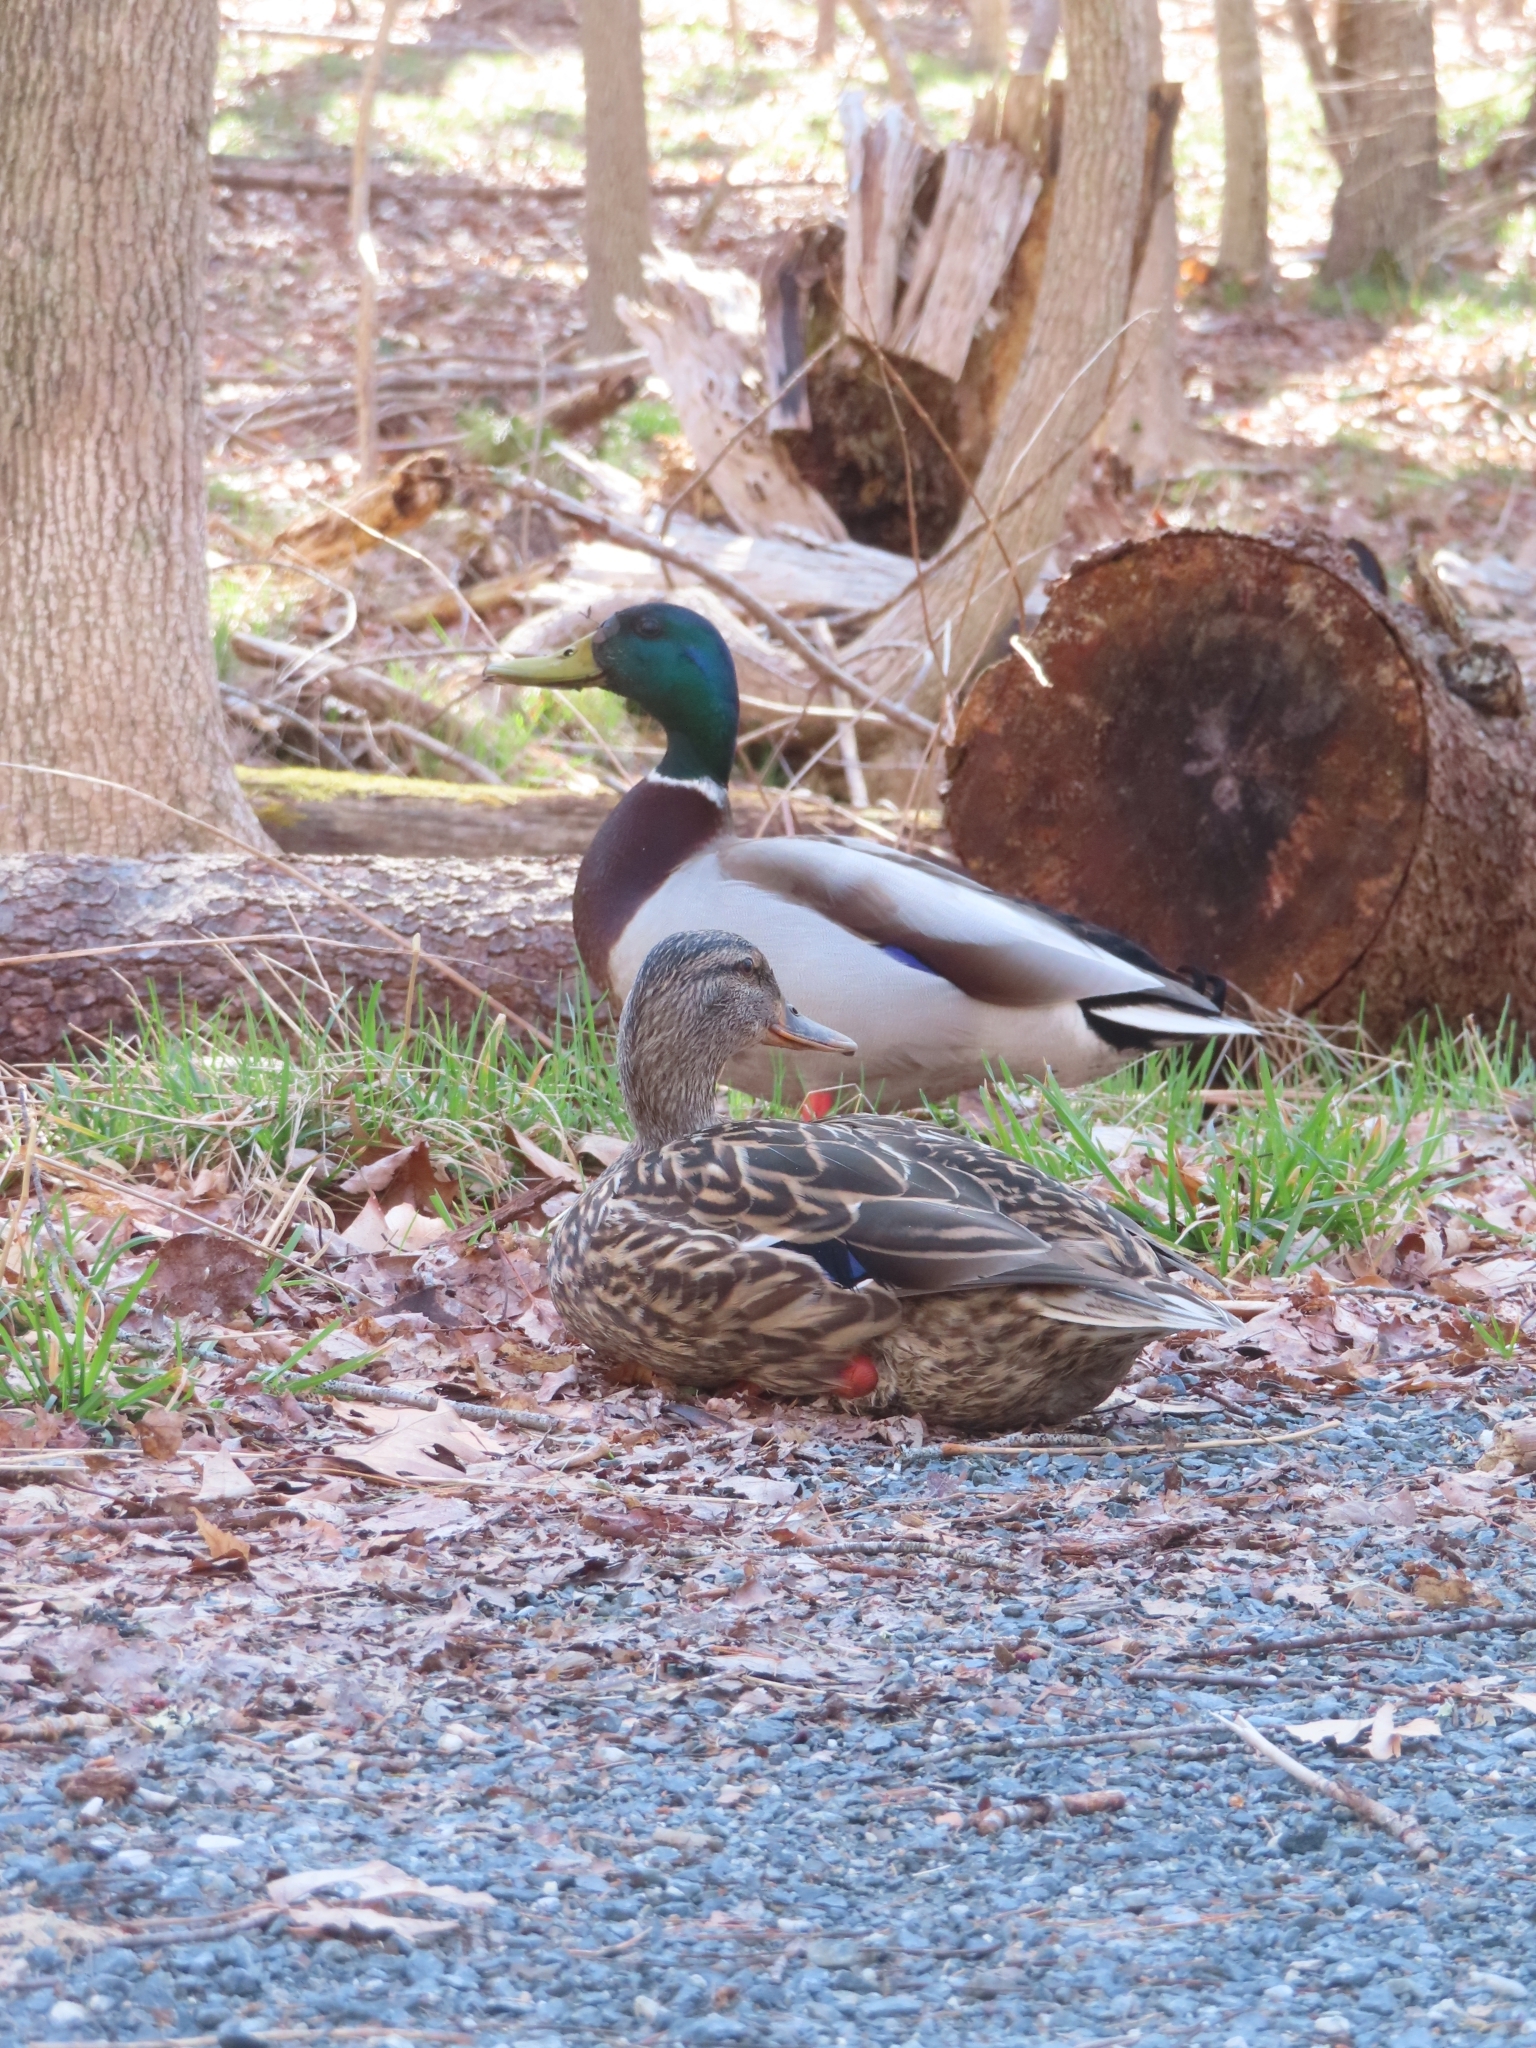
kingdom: Animalia
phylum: Chordata
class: Aves
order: Anseriformes
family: Anatidae
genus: Anas
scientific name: Anas platyrhynchos
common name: Mallard
